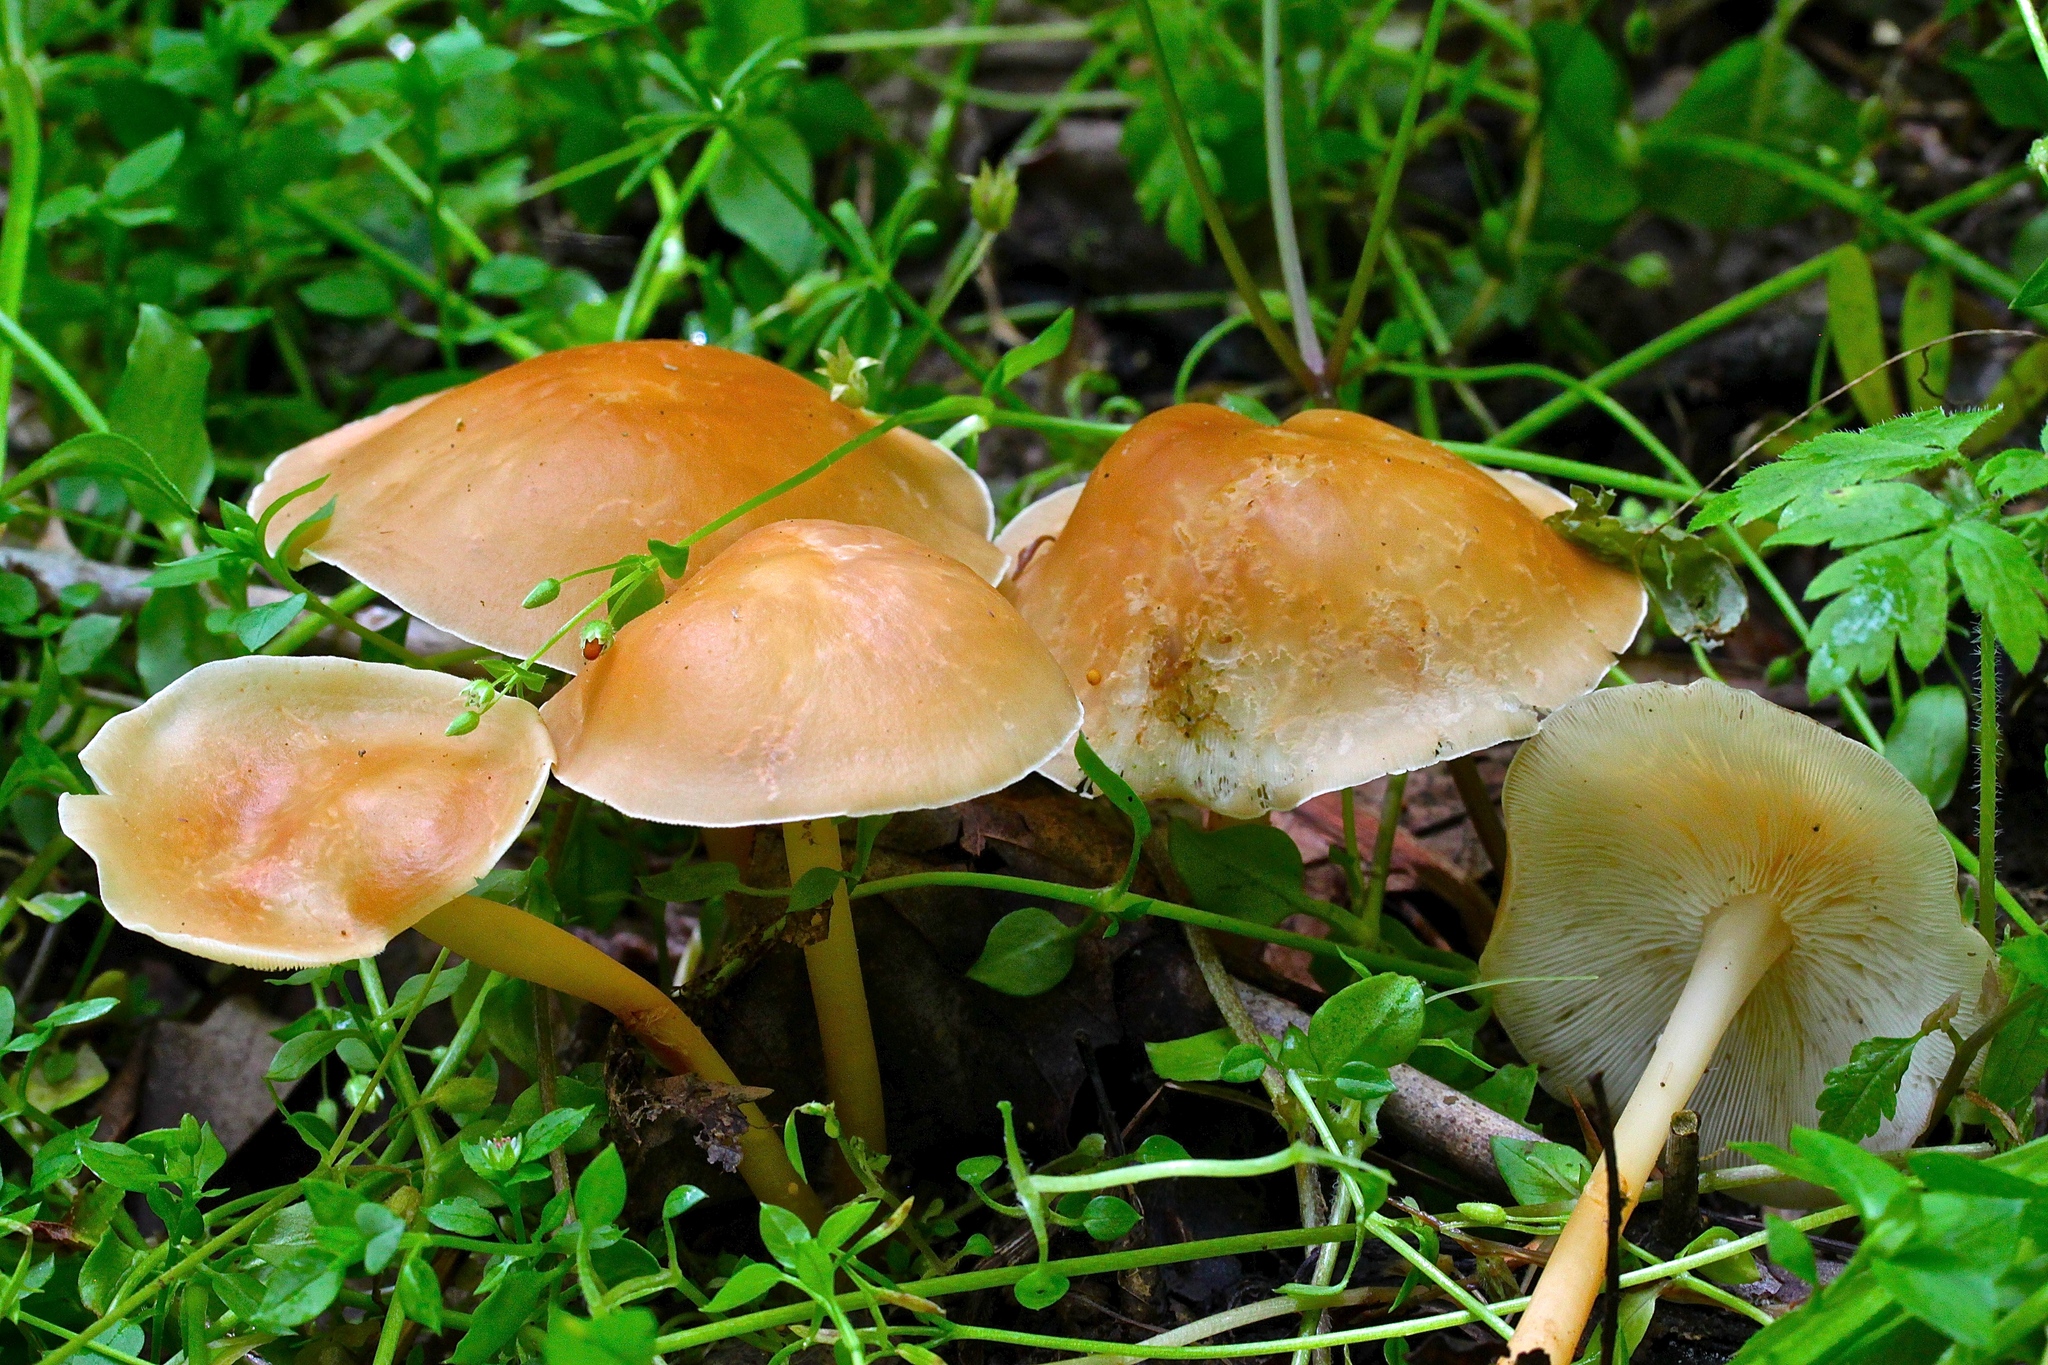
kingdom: Fungi
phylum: Basidiomycota
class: Agaricomycetes
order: Agaricales
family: Omphalotaceae
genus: Gymnopus
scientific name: Gymnopus dryophilus
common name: Penny top
